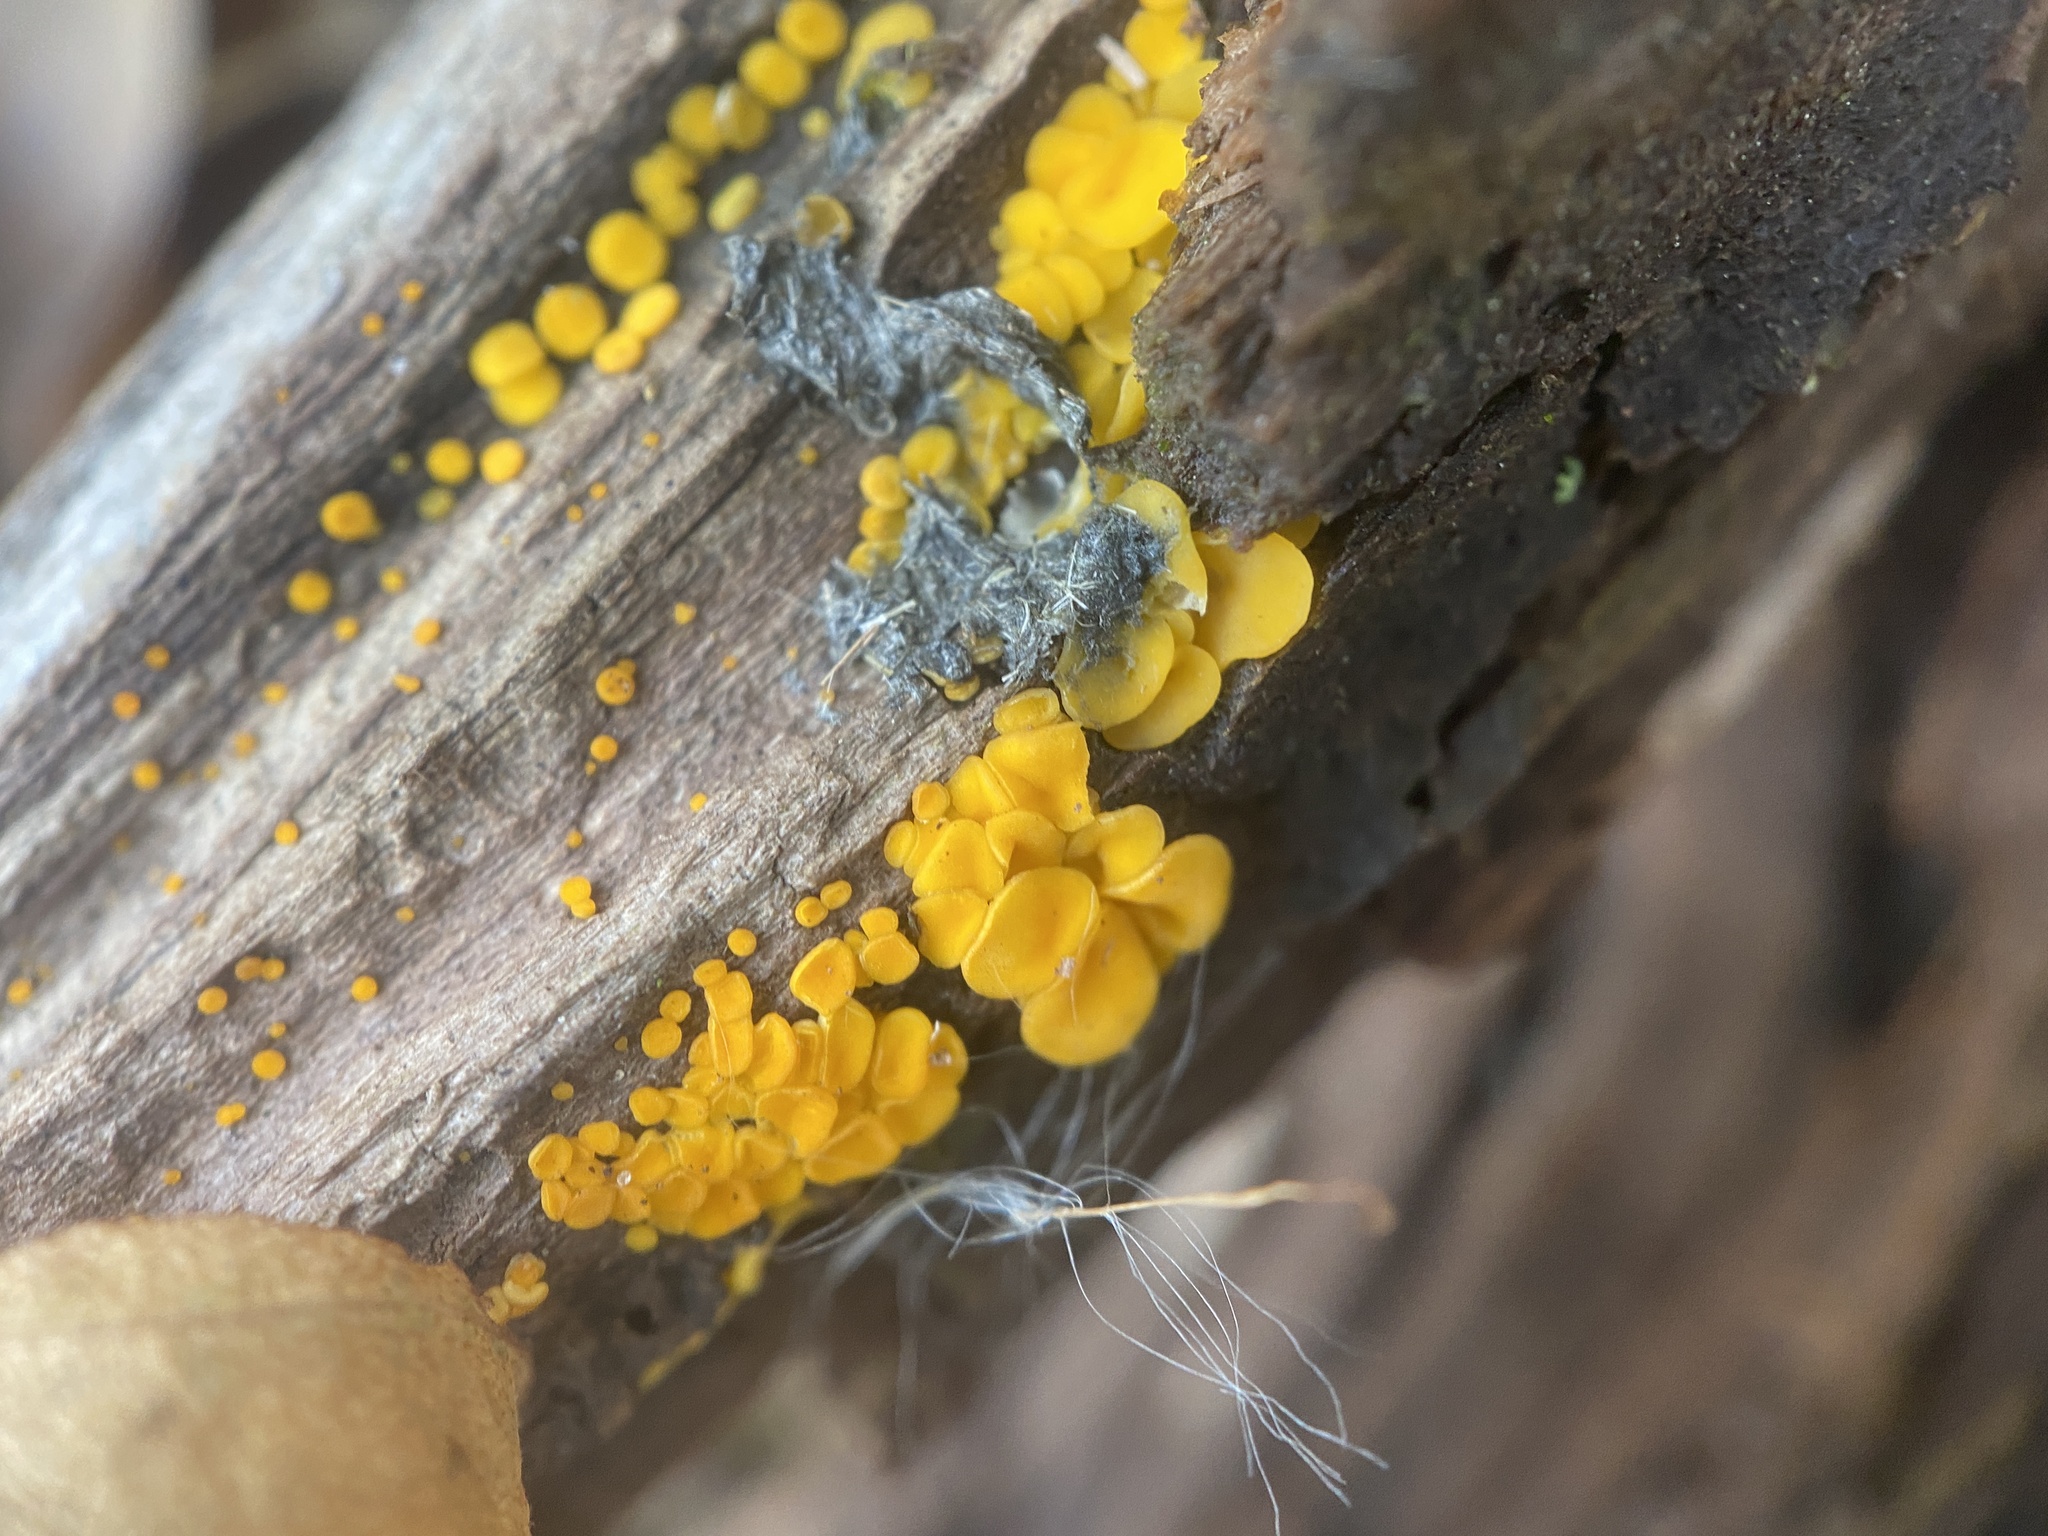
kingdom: Fungi
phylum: Ascomycota
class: Leotiomycetes
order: Helotiales
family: Pezizellaceae
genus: Calycina
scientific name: Calycina citrina
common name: Yellow fairy cups
